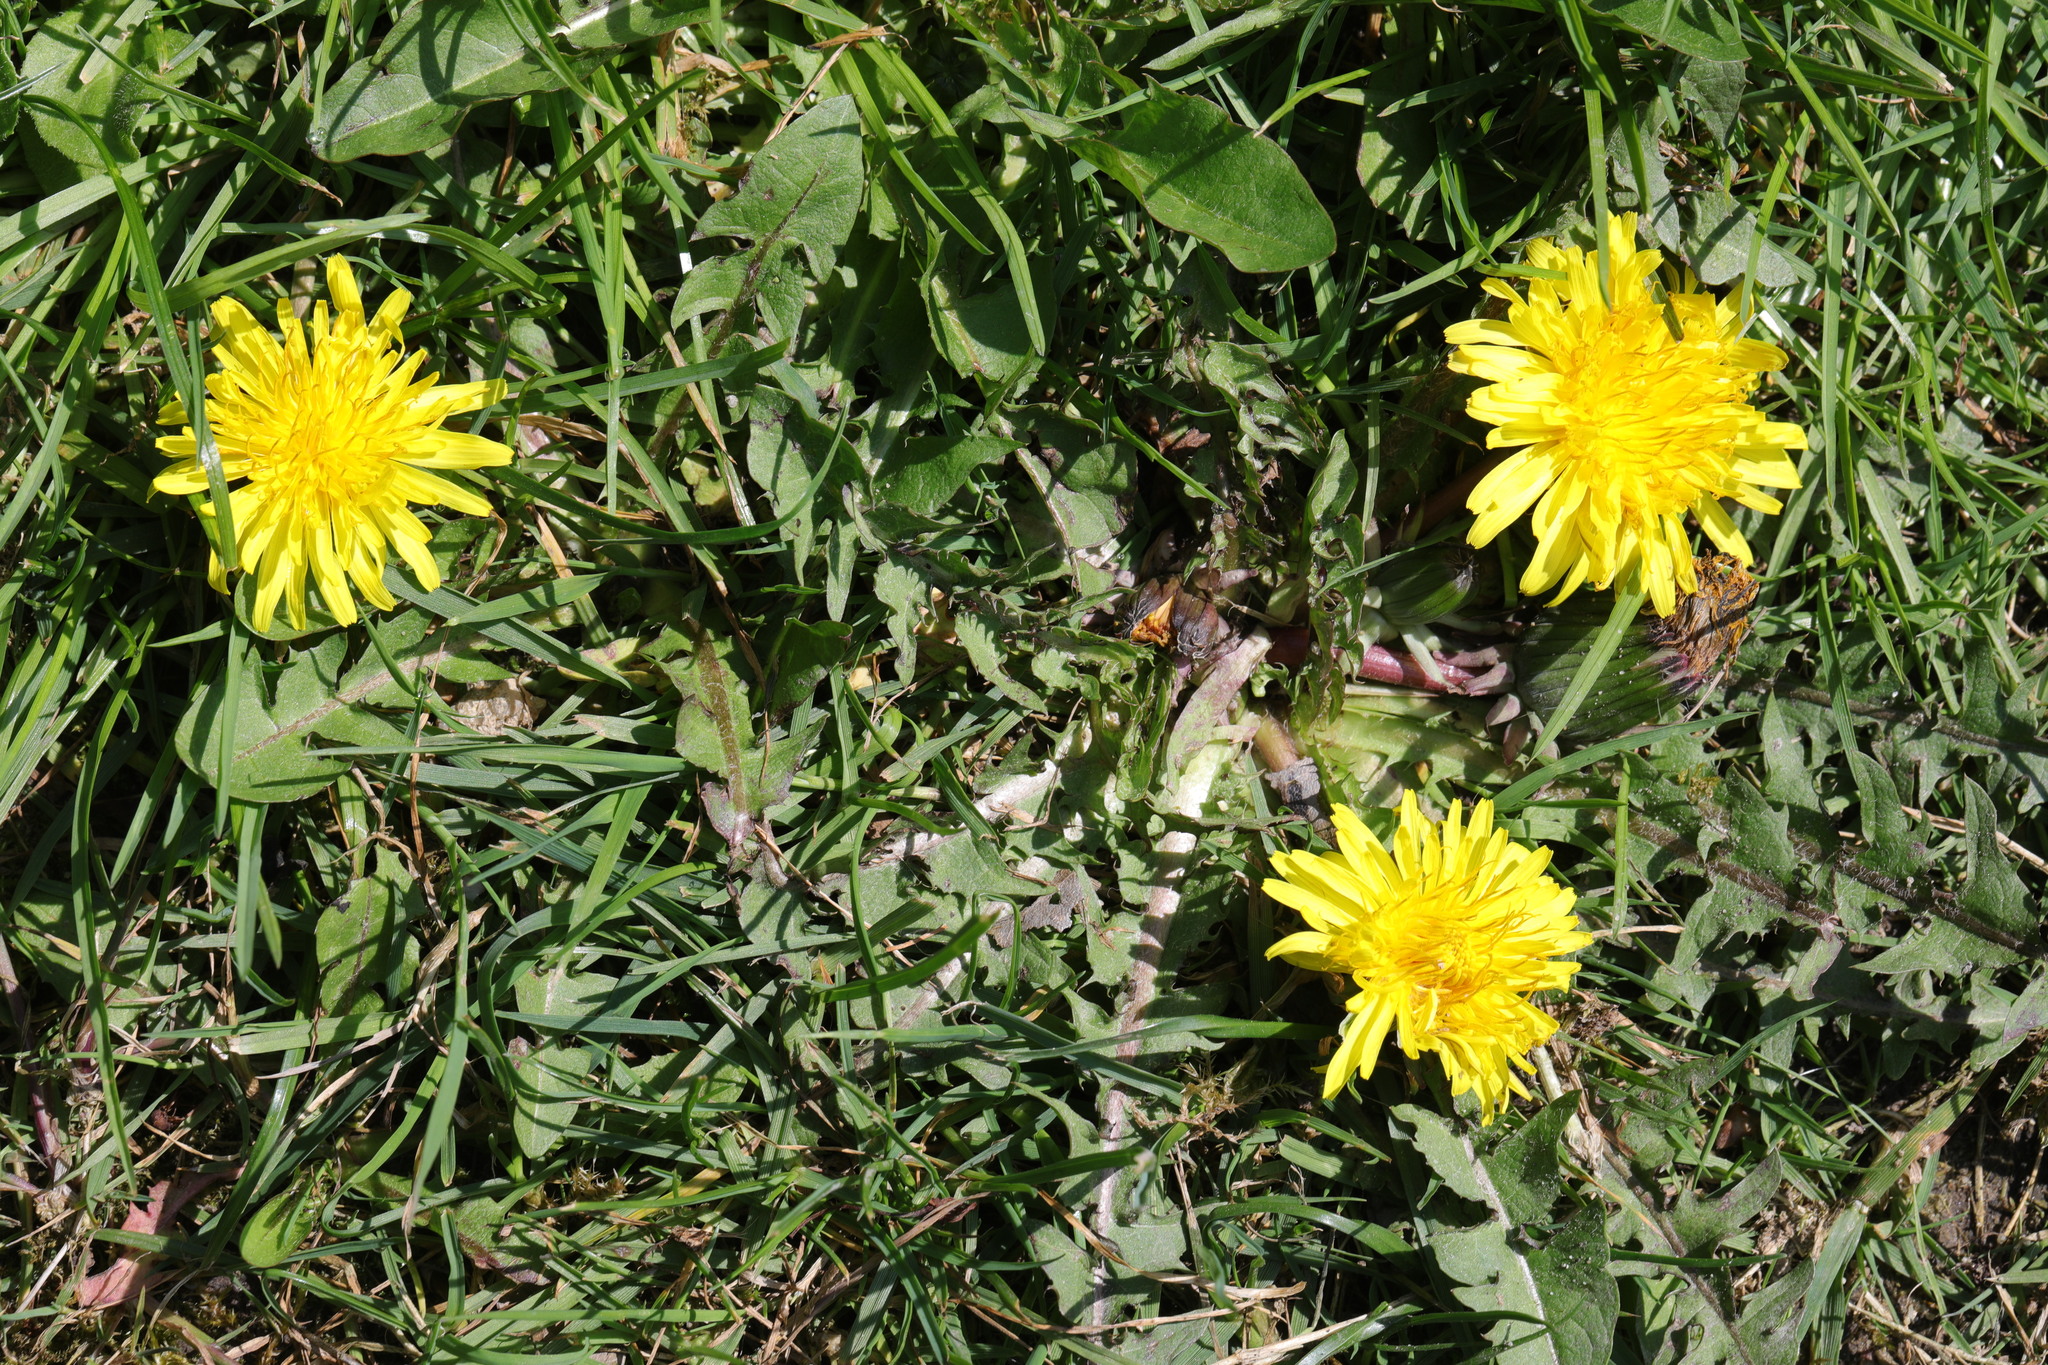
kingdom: Plantae
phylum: Tracheophyta
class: Magnoliopsida
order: Asterales
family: Asteraceae
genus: Taraxacum
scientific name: Taraxacum officinale
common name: Common dandelion
